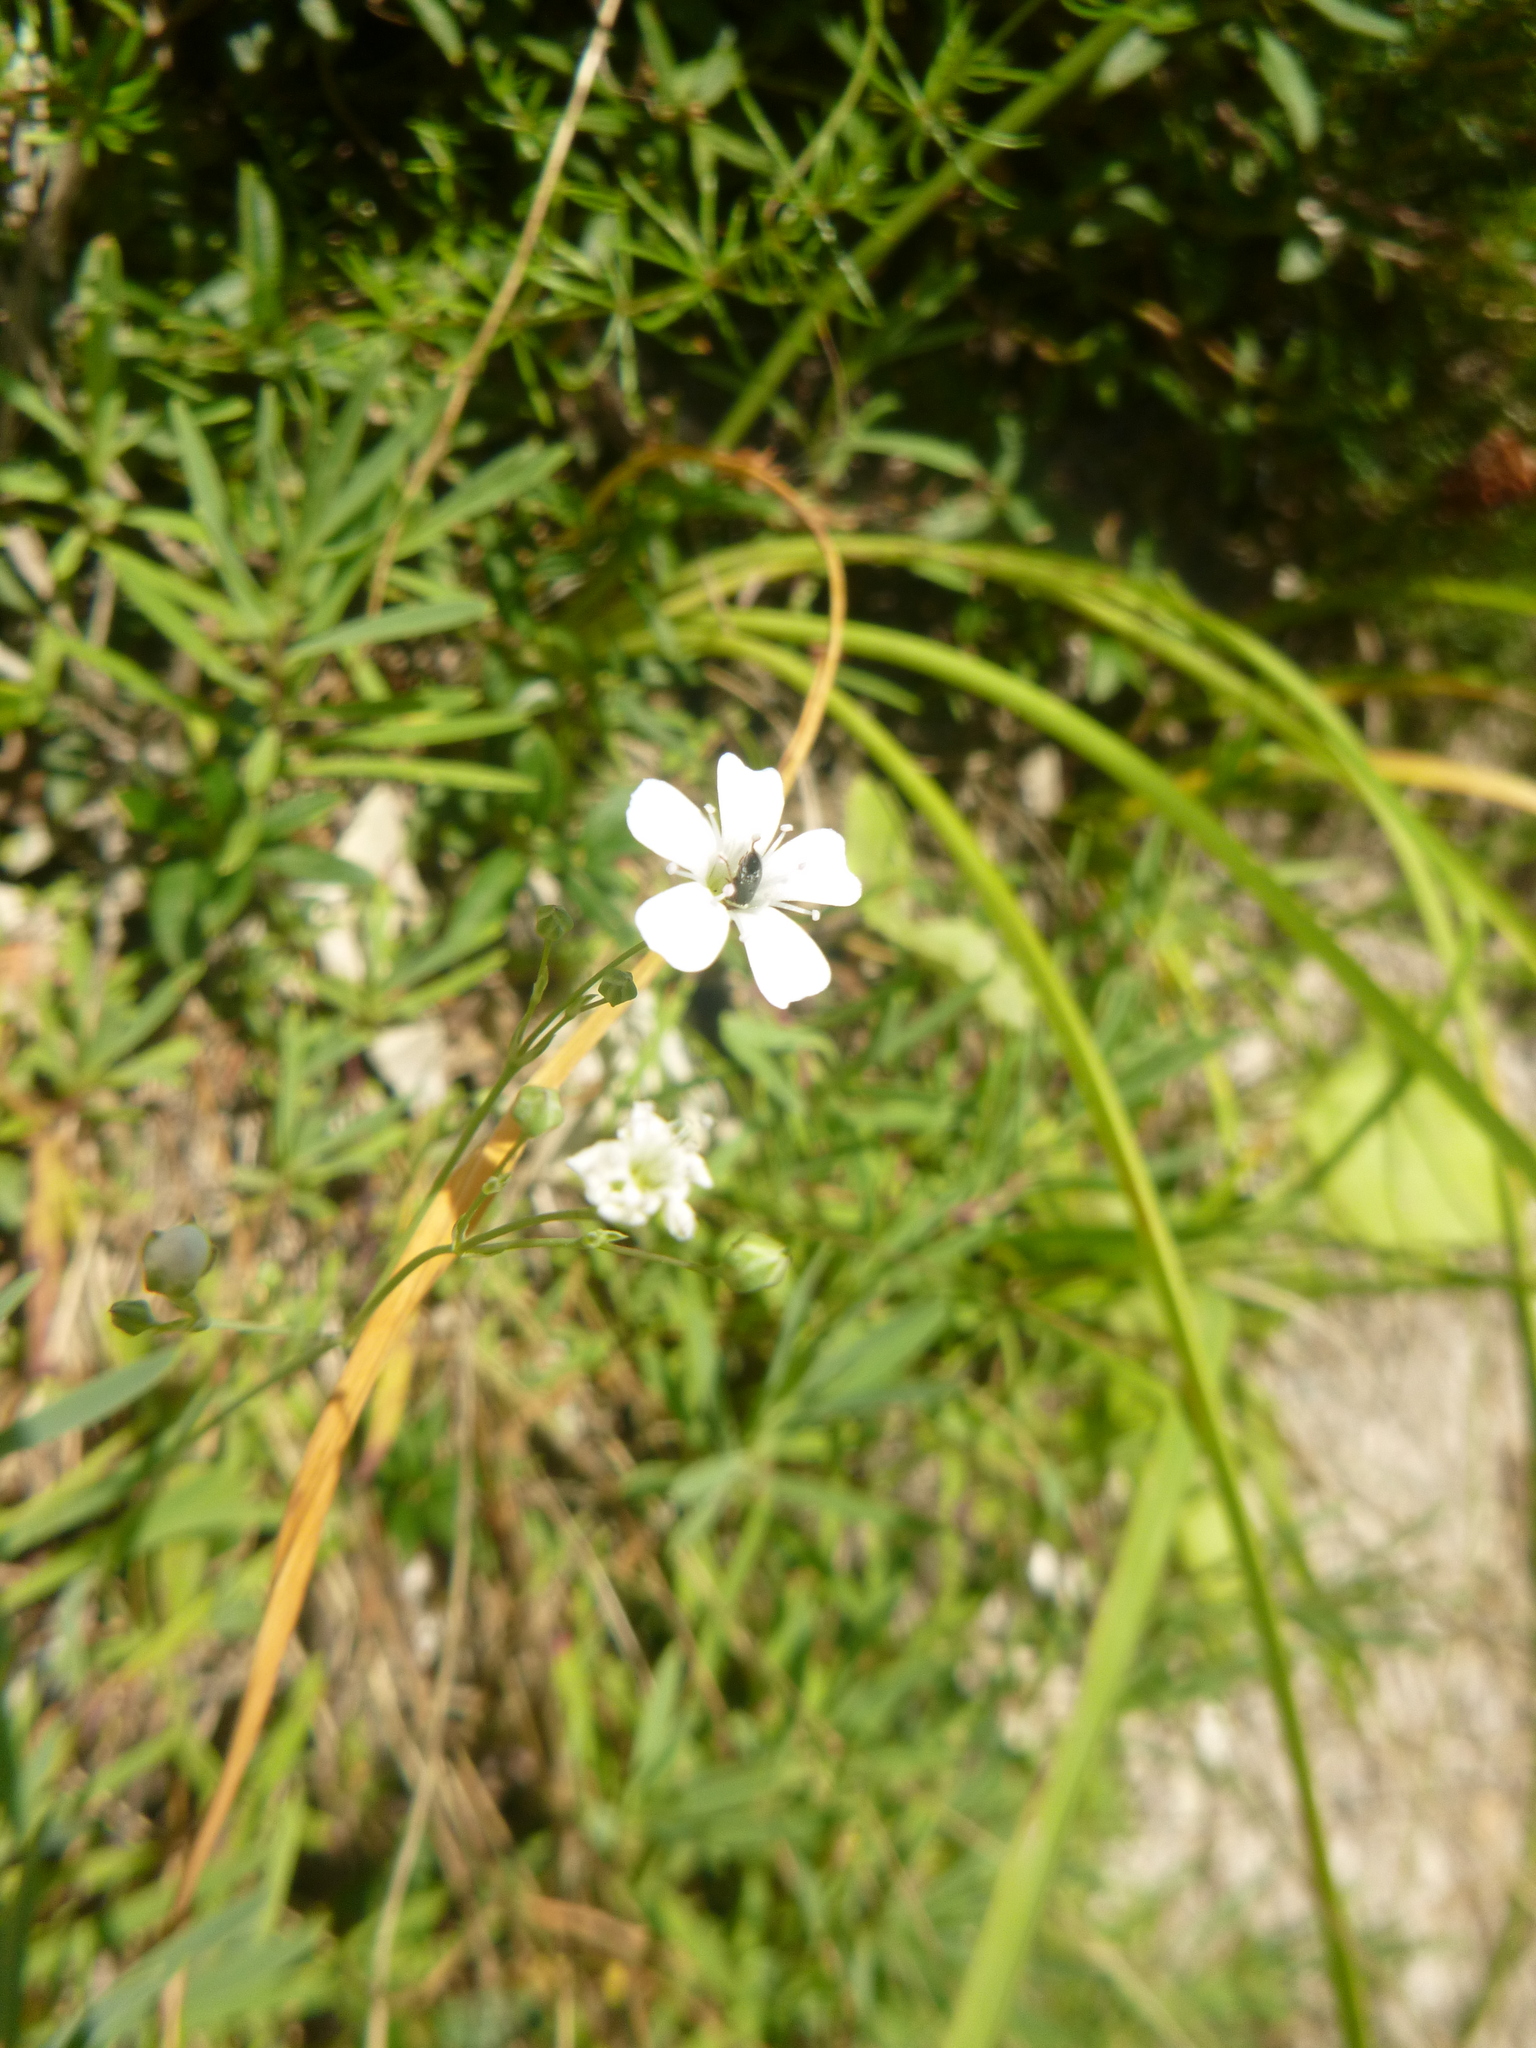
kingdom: Plantae
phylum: Tracheophyta
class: Magnoliopsida
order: Caryophyllales
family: Caryophyllaceae
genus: Gypsophila
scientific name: Gypsophila repens
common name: Creeping baby's-breath
